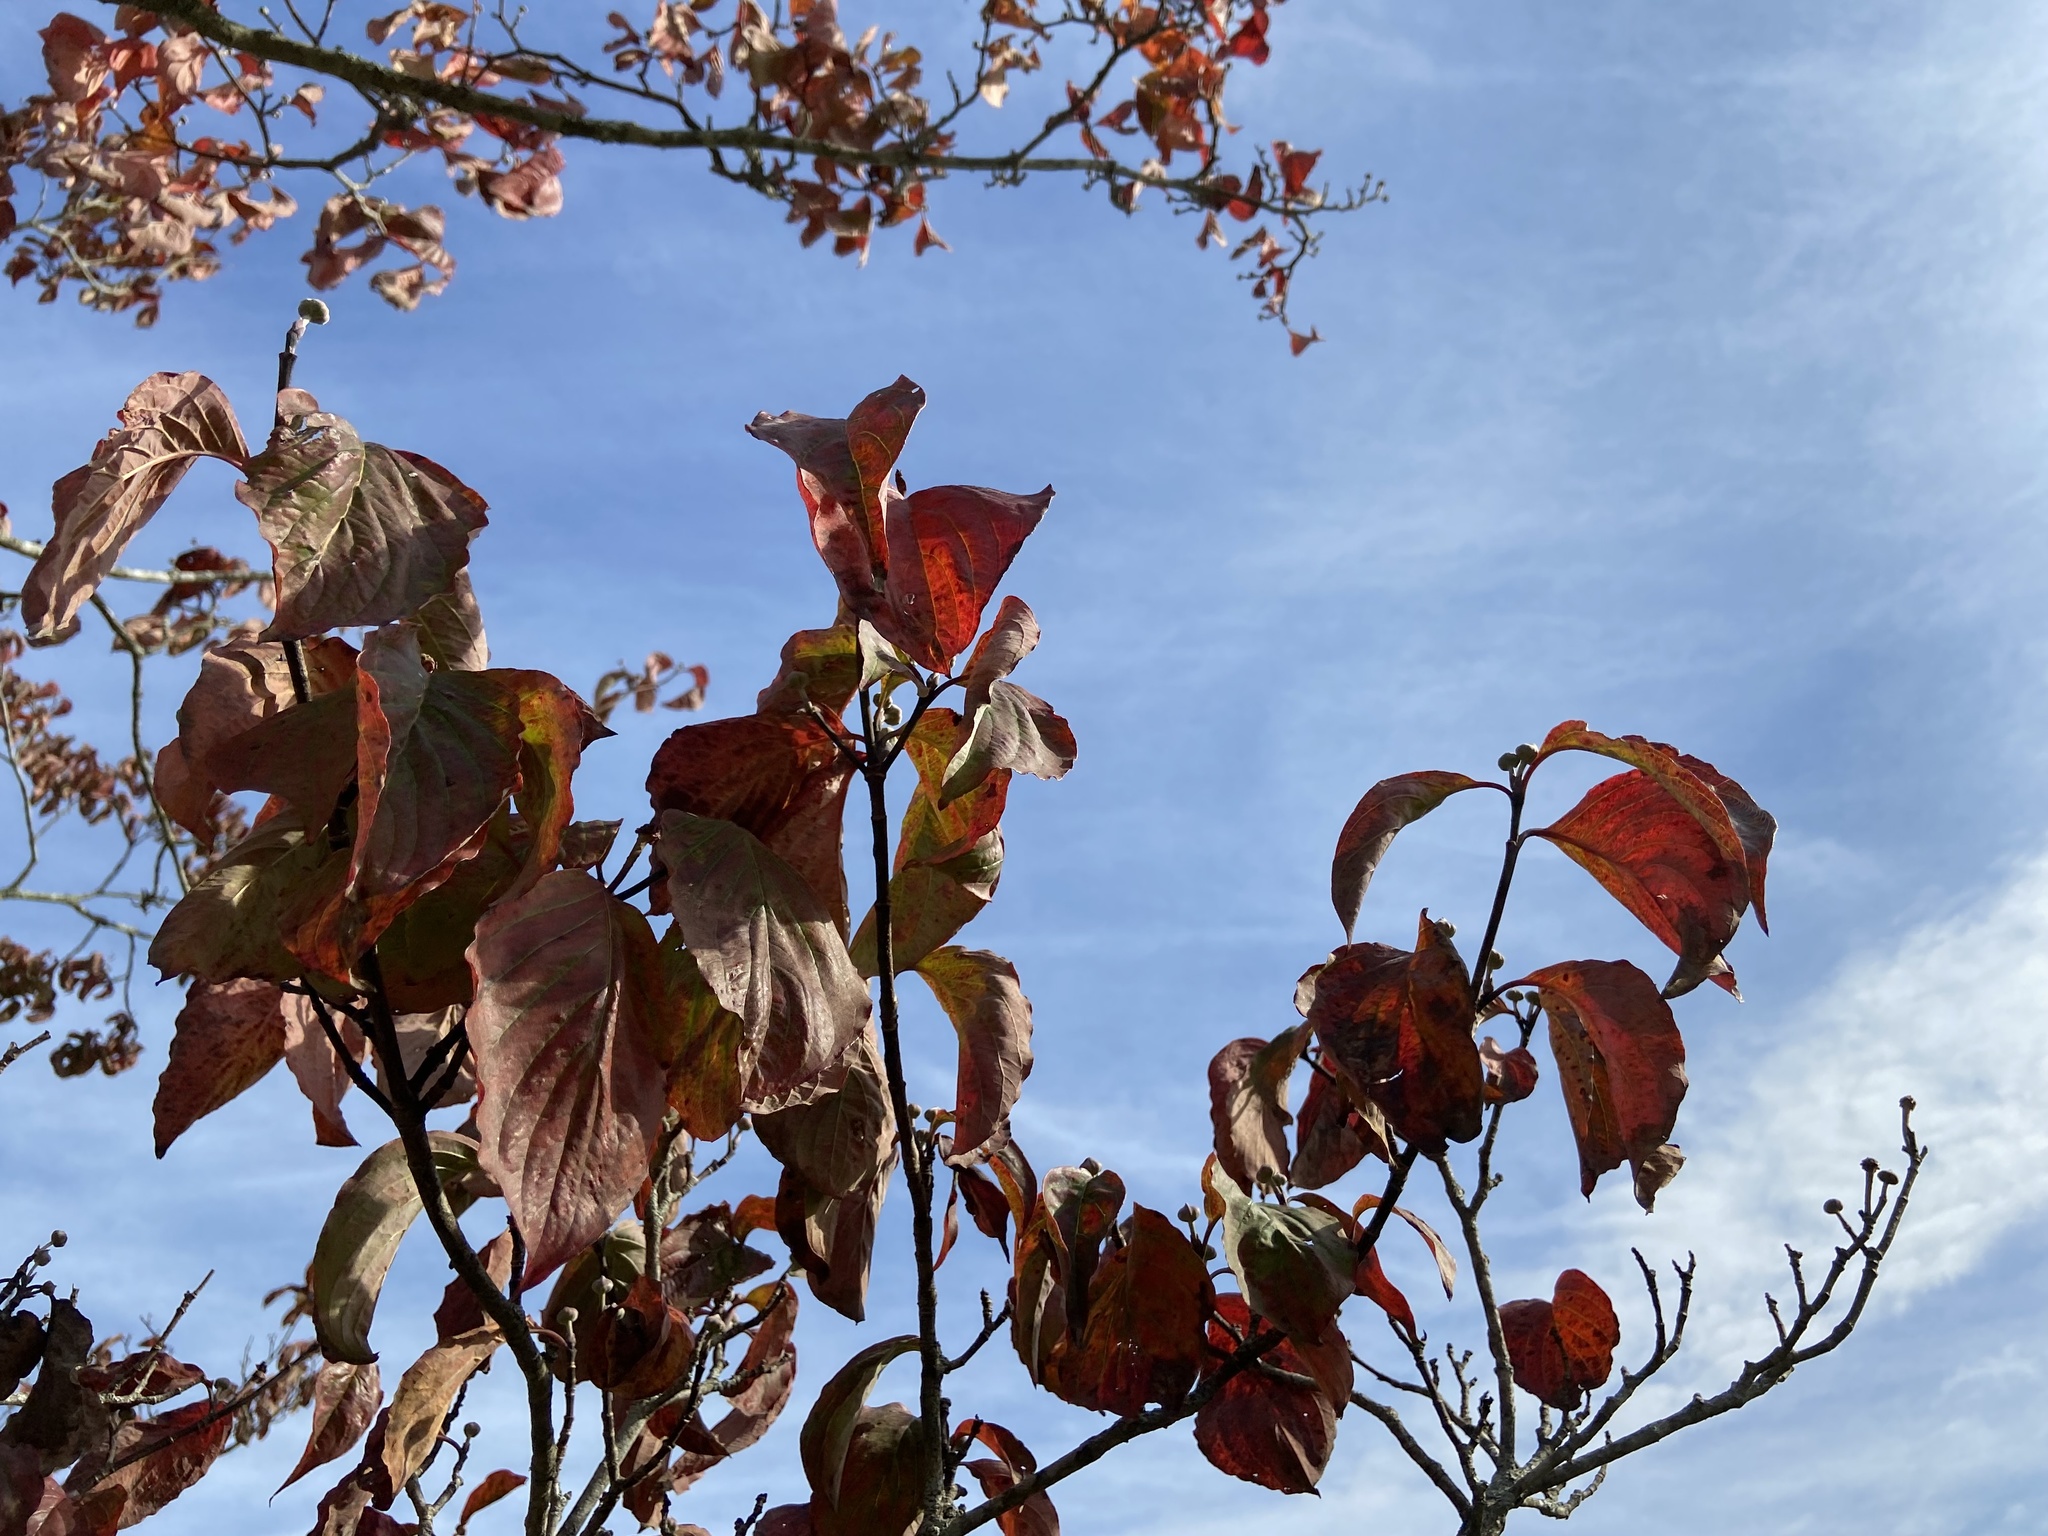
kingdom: Plantae
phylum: Tracheophyta
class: Magnoliopsida
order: Cornales
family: Cornaceae
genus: Cornus
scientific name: Cornus florida
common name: Flowering dogwood
